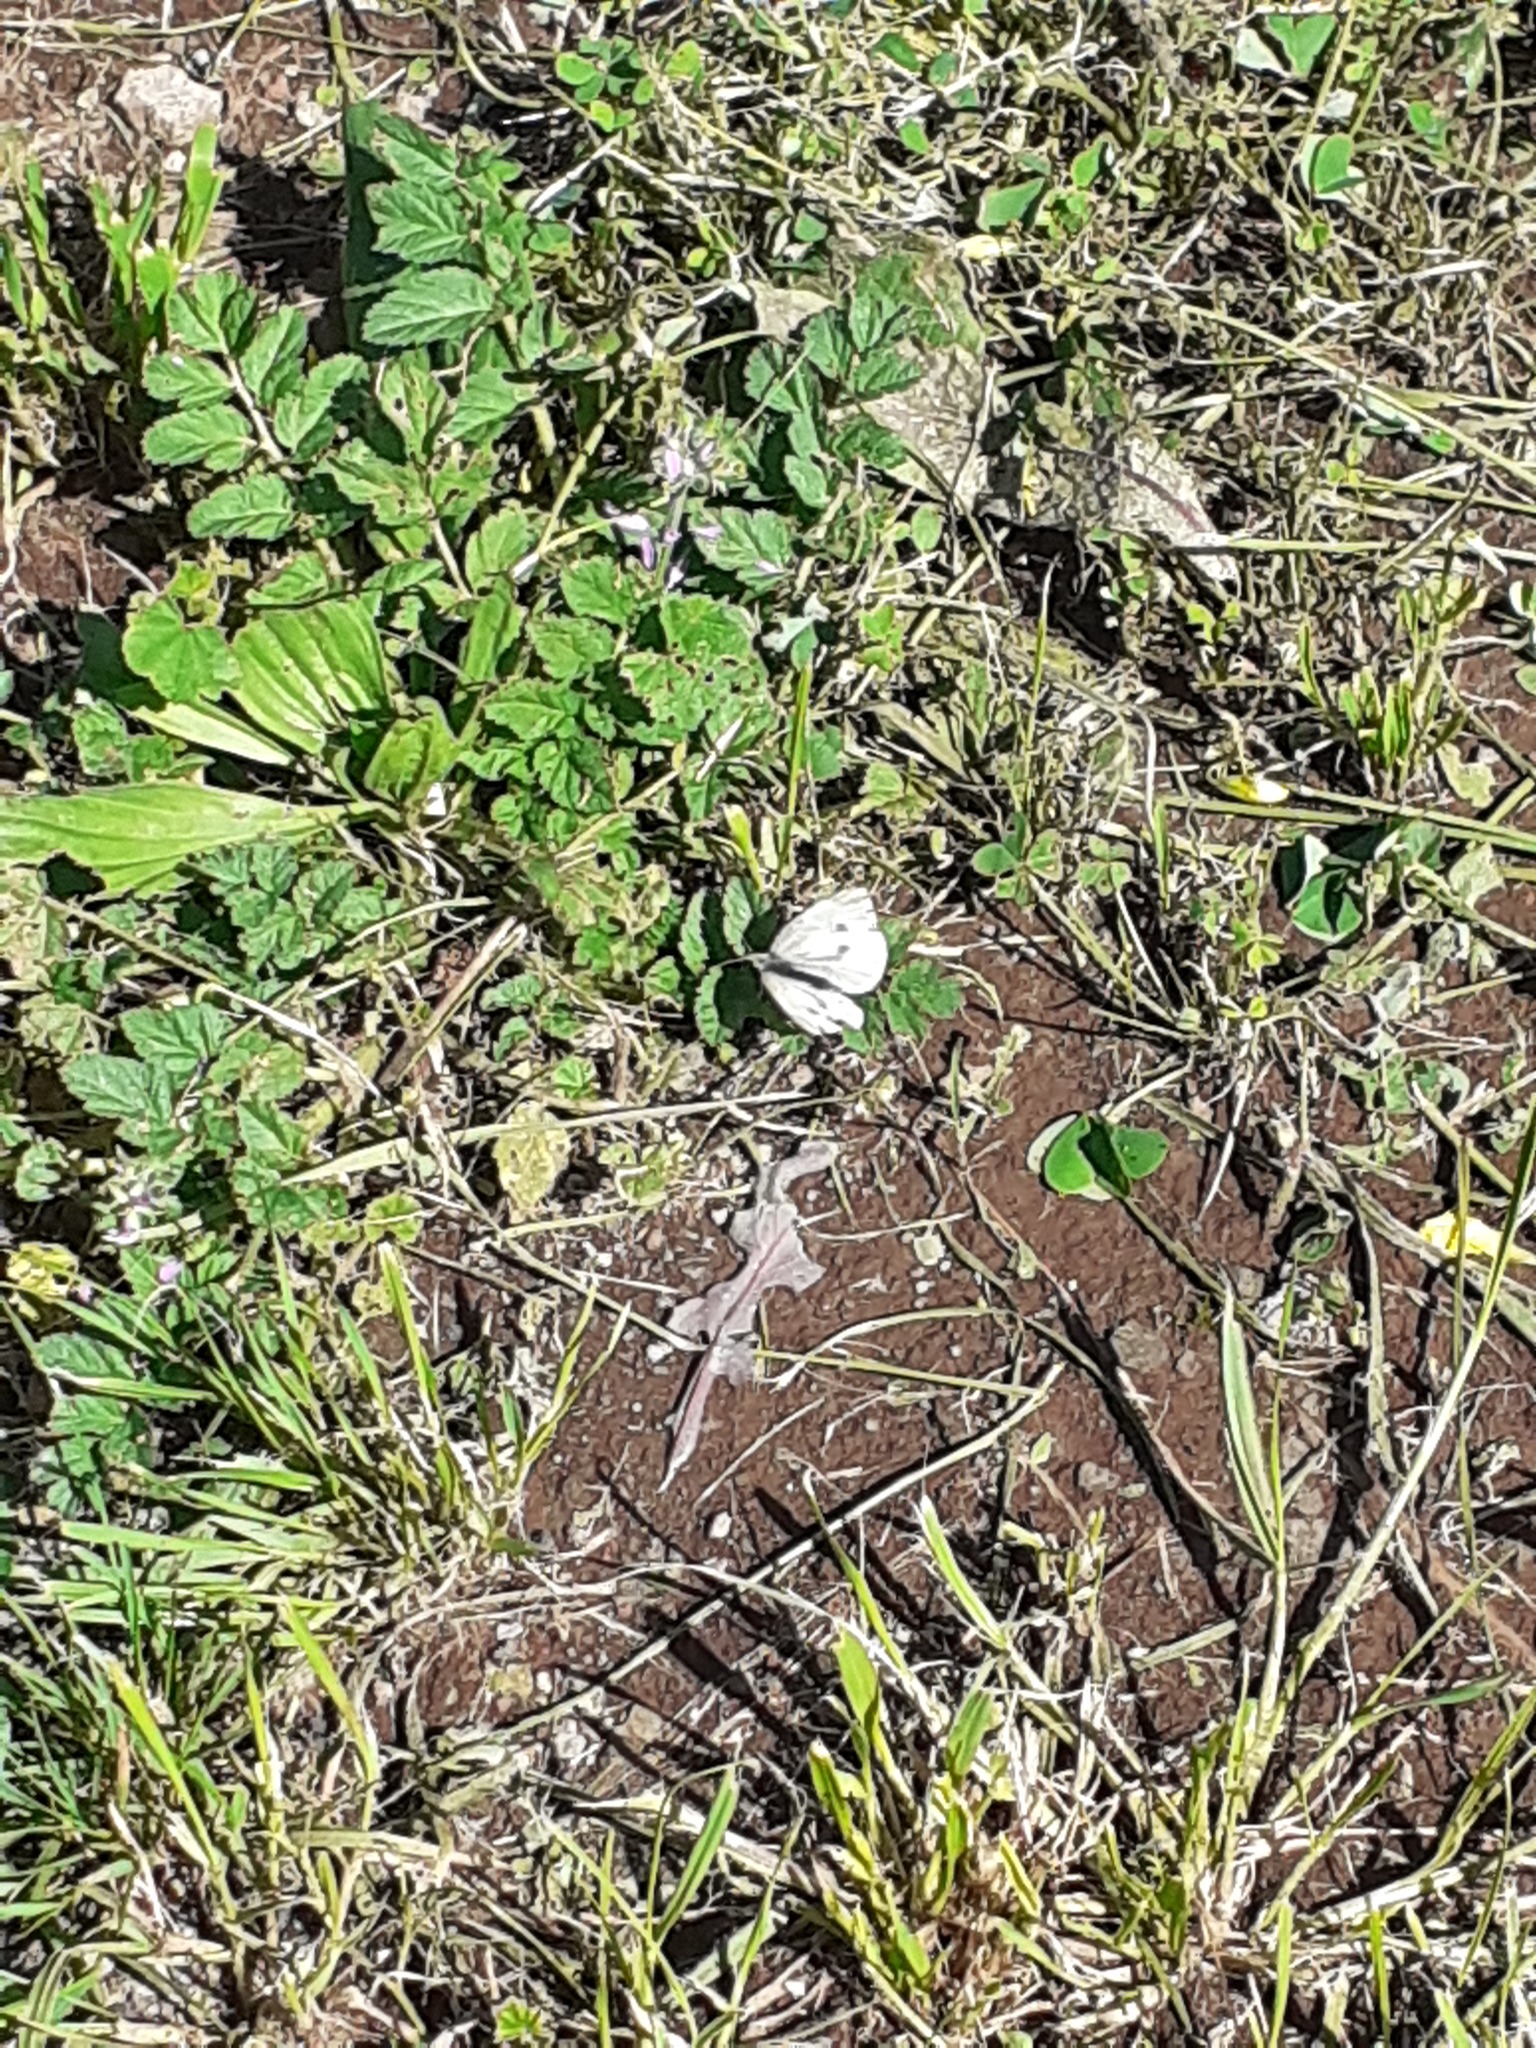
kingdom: Animalia
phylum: Arthropoda
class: Insecta
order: Lepidoptera
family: Pieridae
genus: Pieris
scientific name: Pieris rapae
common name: Small white
